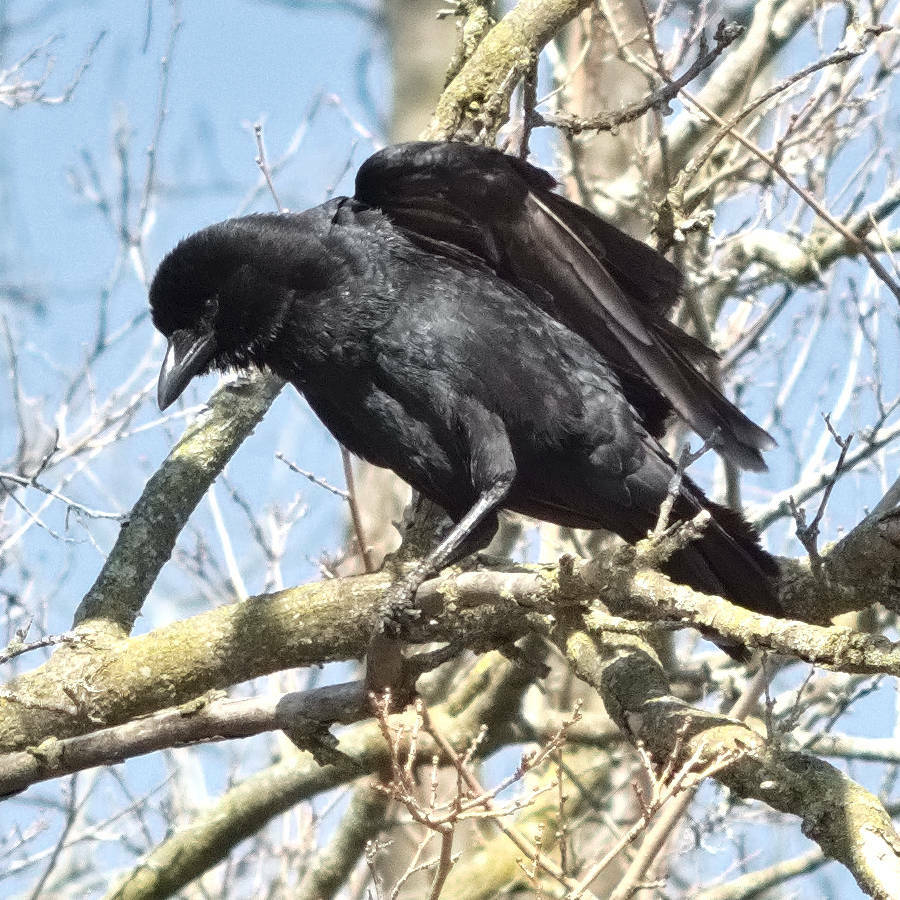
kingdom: Animalia
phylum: Chordata
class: Aves
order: Passeriformes
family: Corvidae
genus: Corvus
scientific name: Corvus brachyrhynchos
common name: American crow
